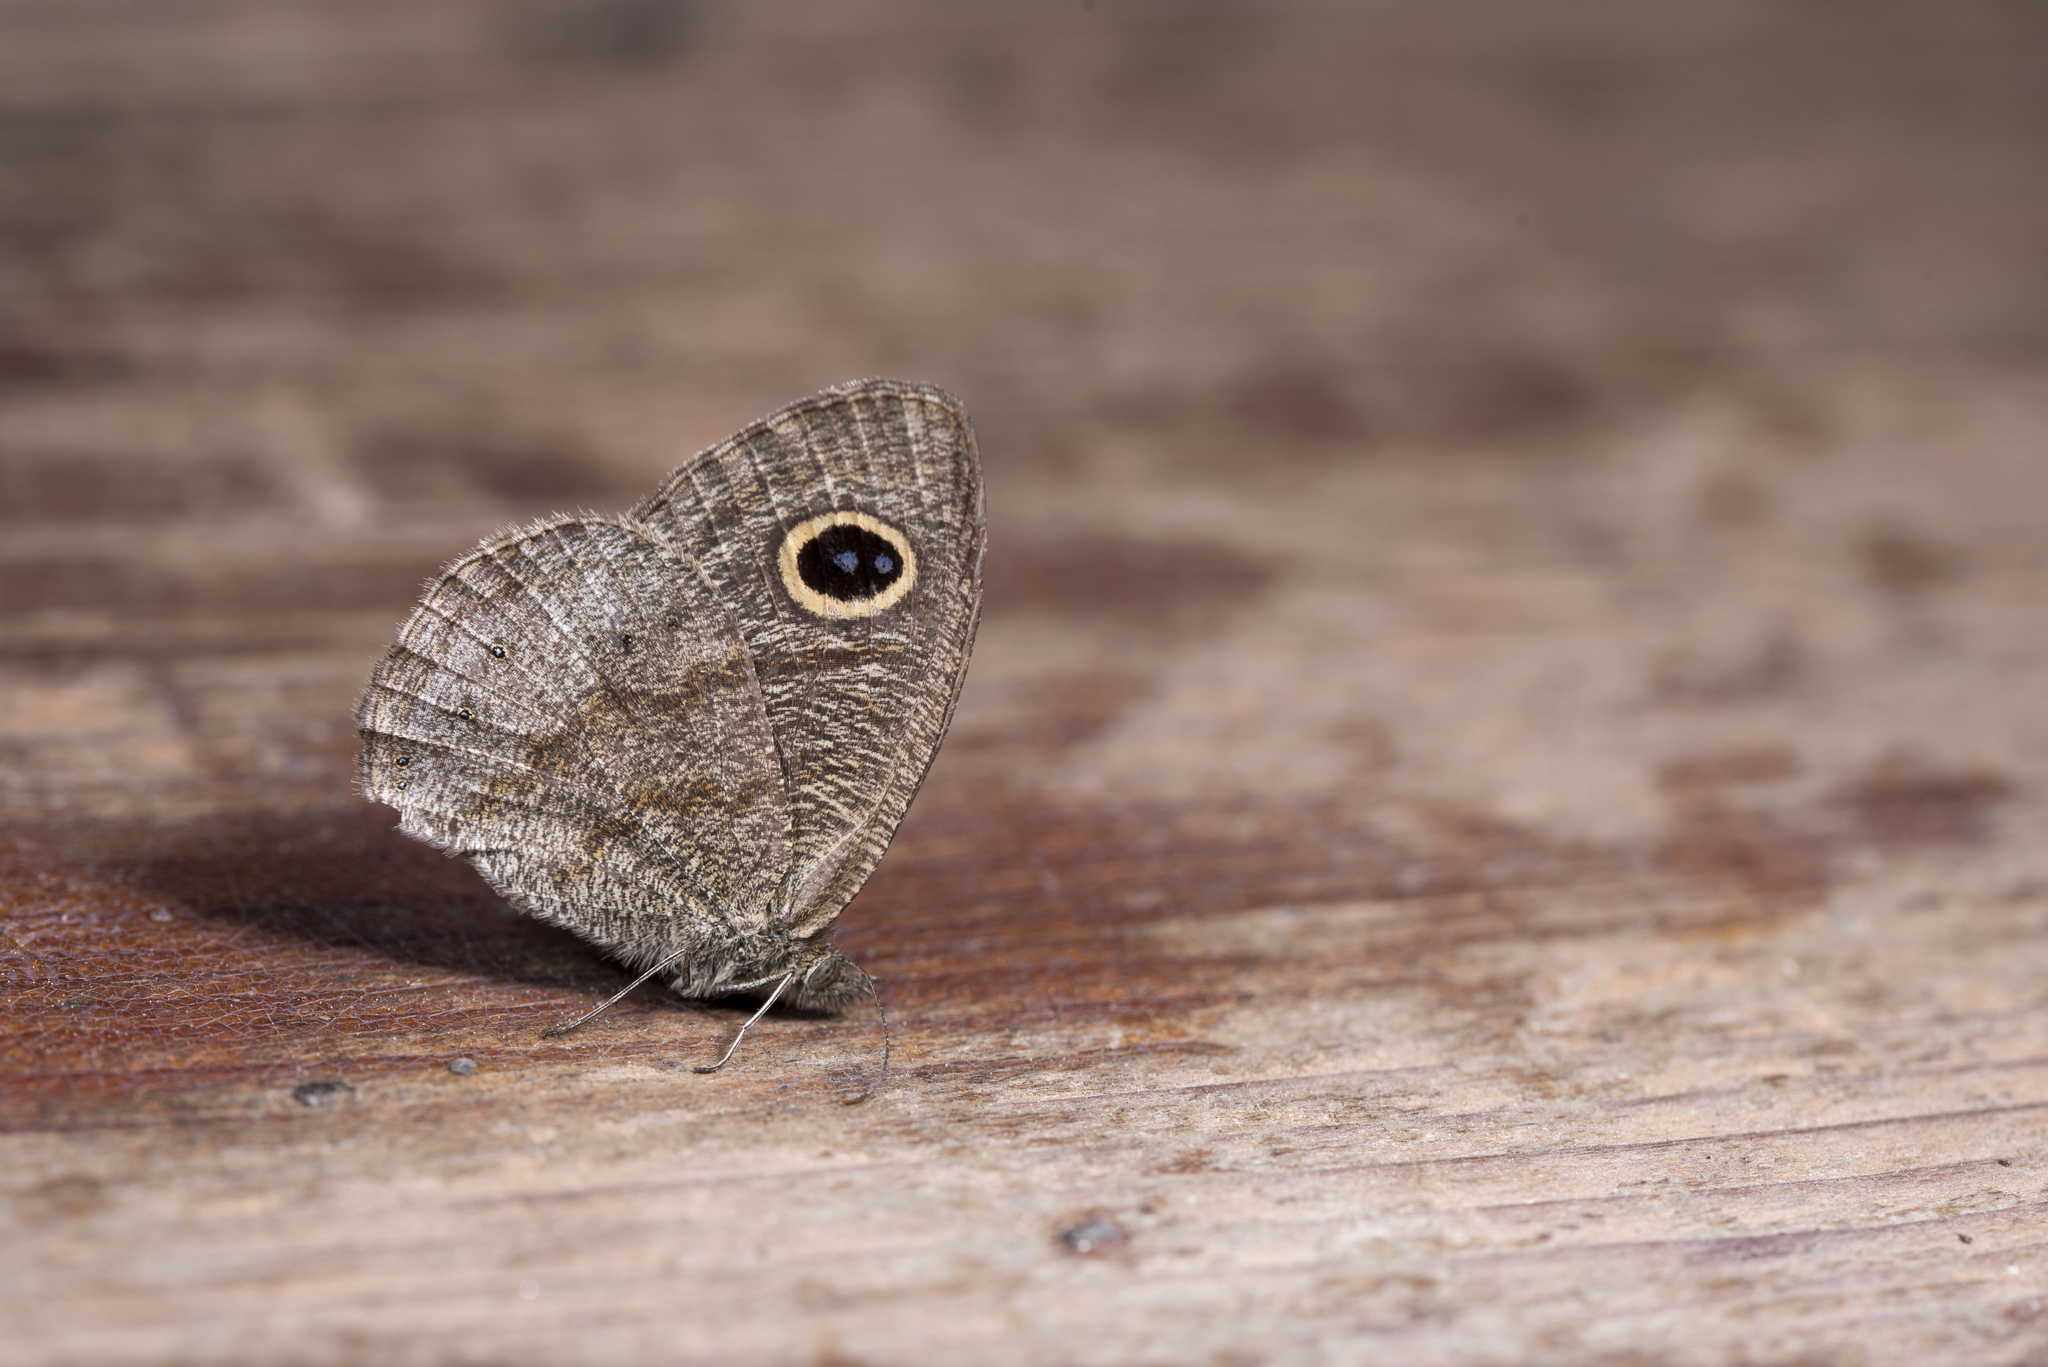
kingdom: Animalia
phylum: Arthropoda
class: Insecta
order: Lepidoptera
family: Nymphalidae
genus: Ypthima
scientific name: Ypthima baldus
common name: Common five-ring
